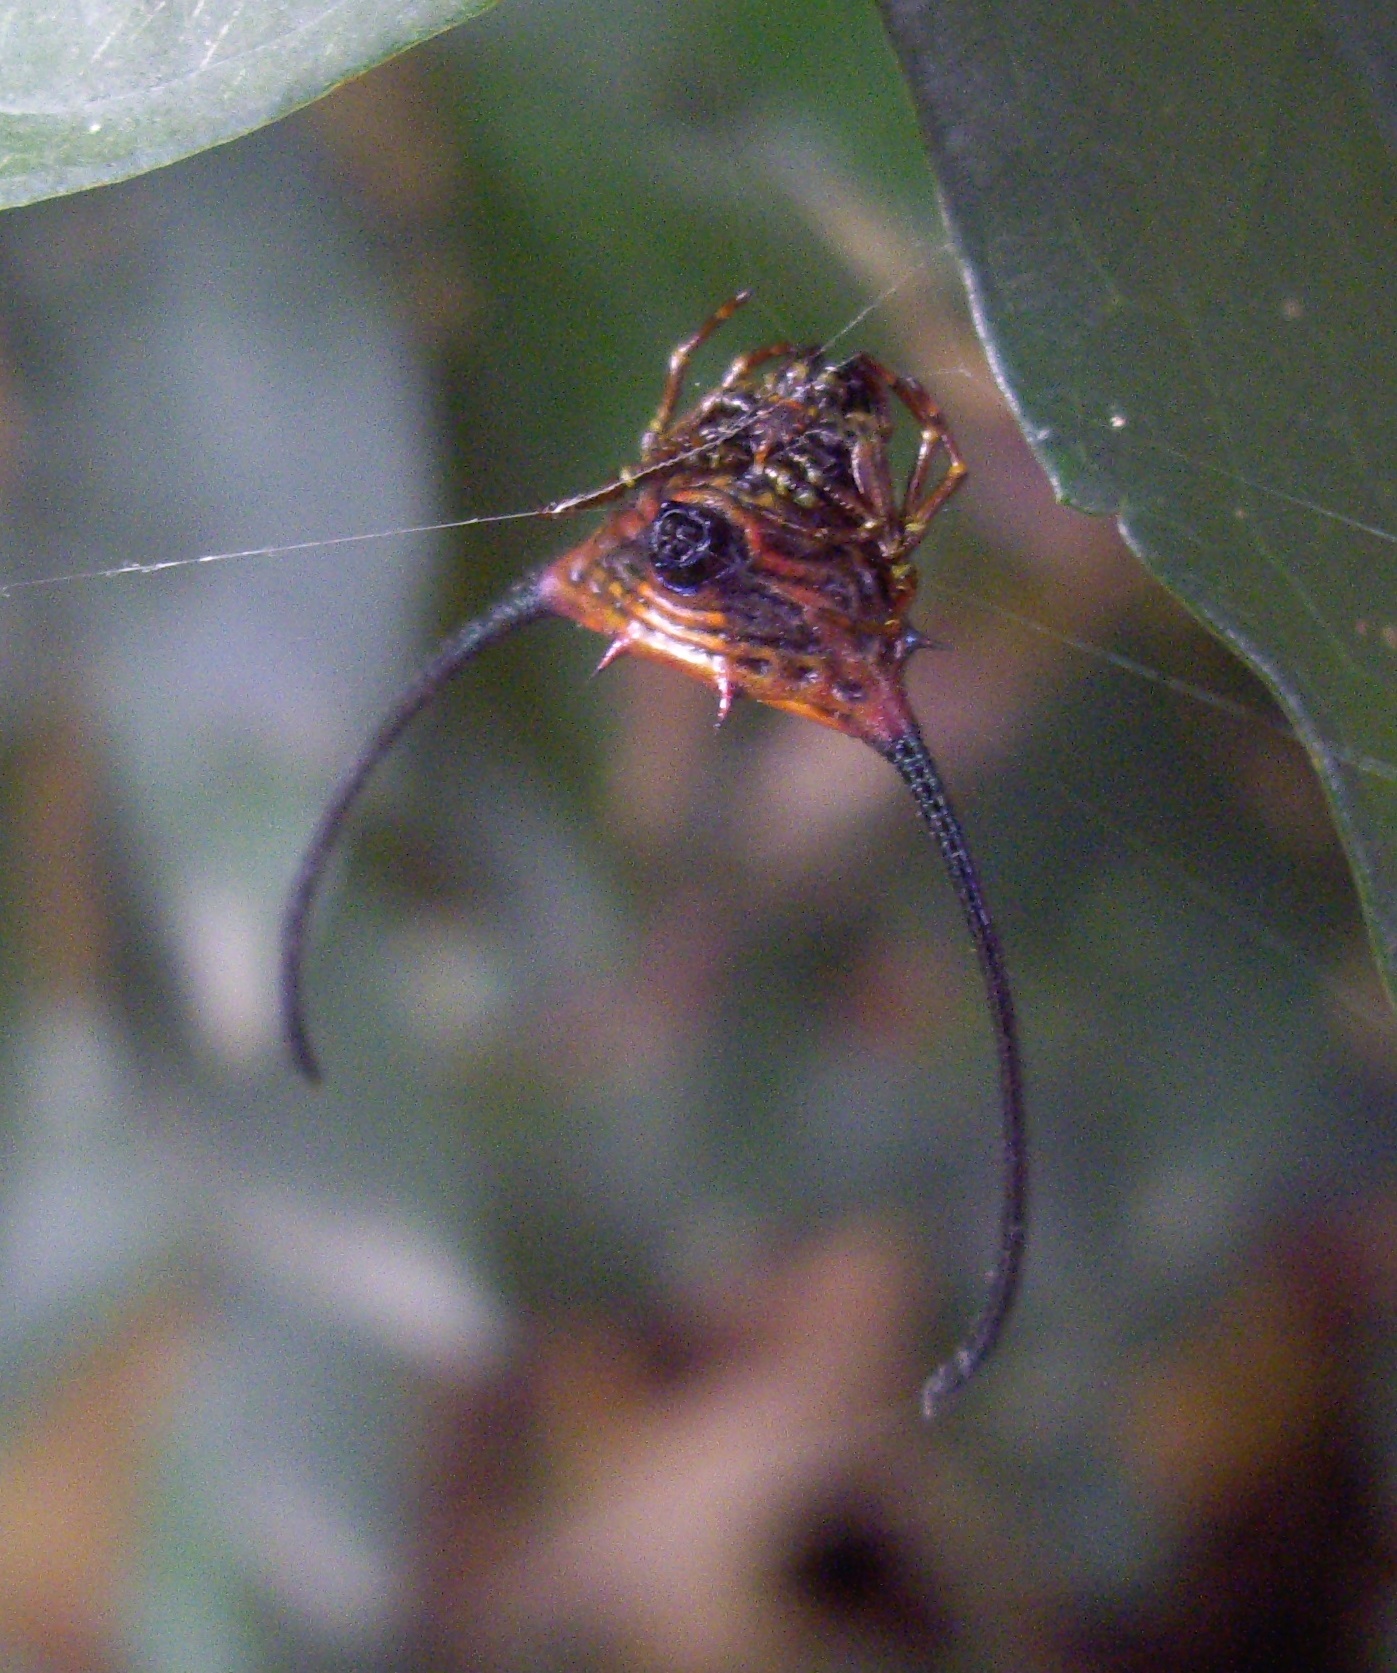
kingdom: Animalia
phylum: Arthropoda
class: Arachnida
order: Araneae
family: Araneidae
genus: Macracantha
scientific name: Macracantha arcuata
